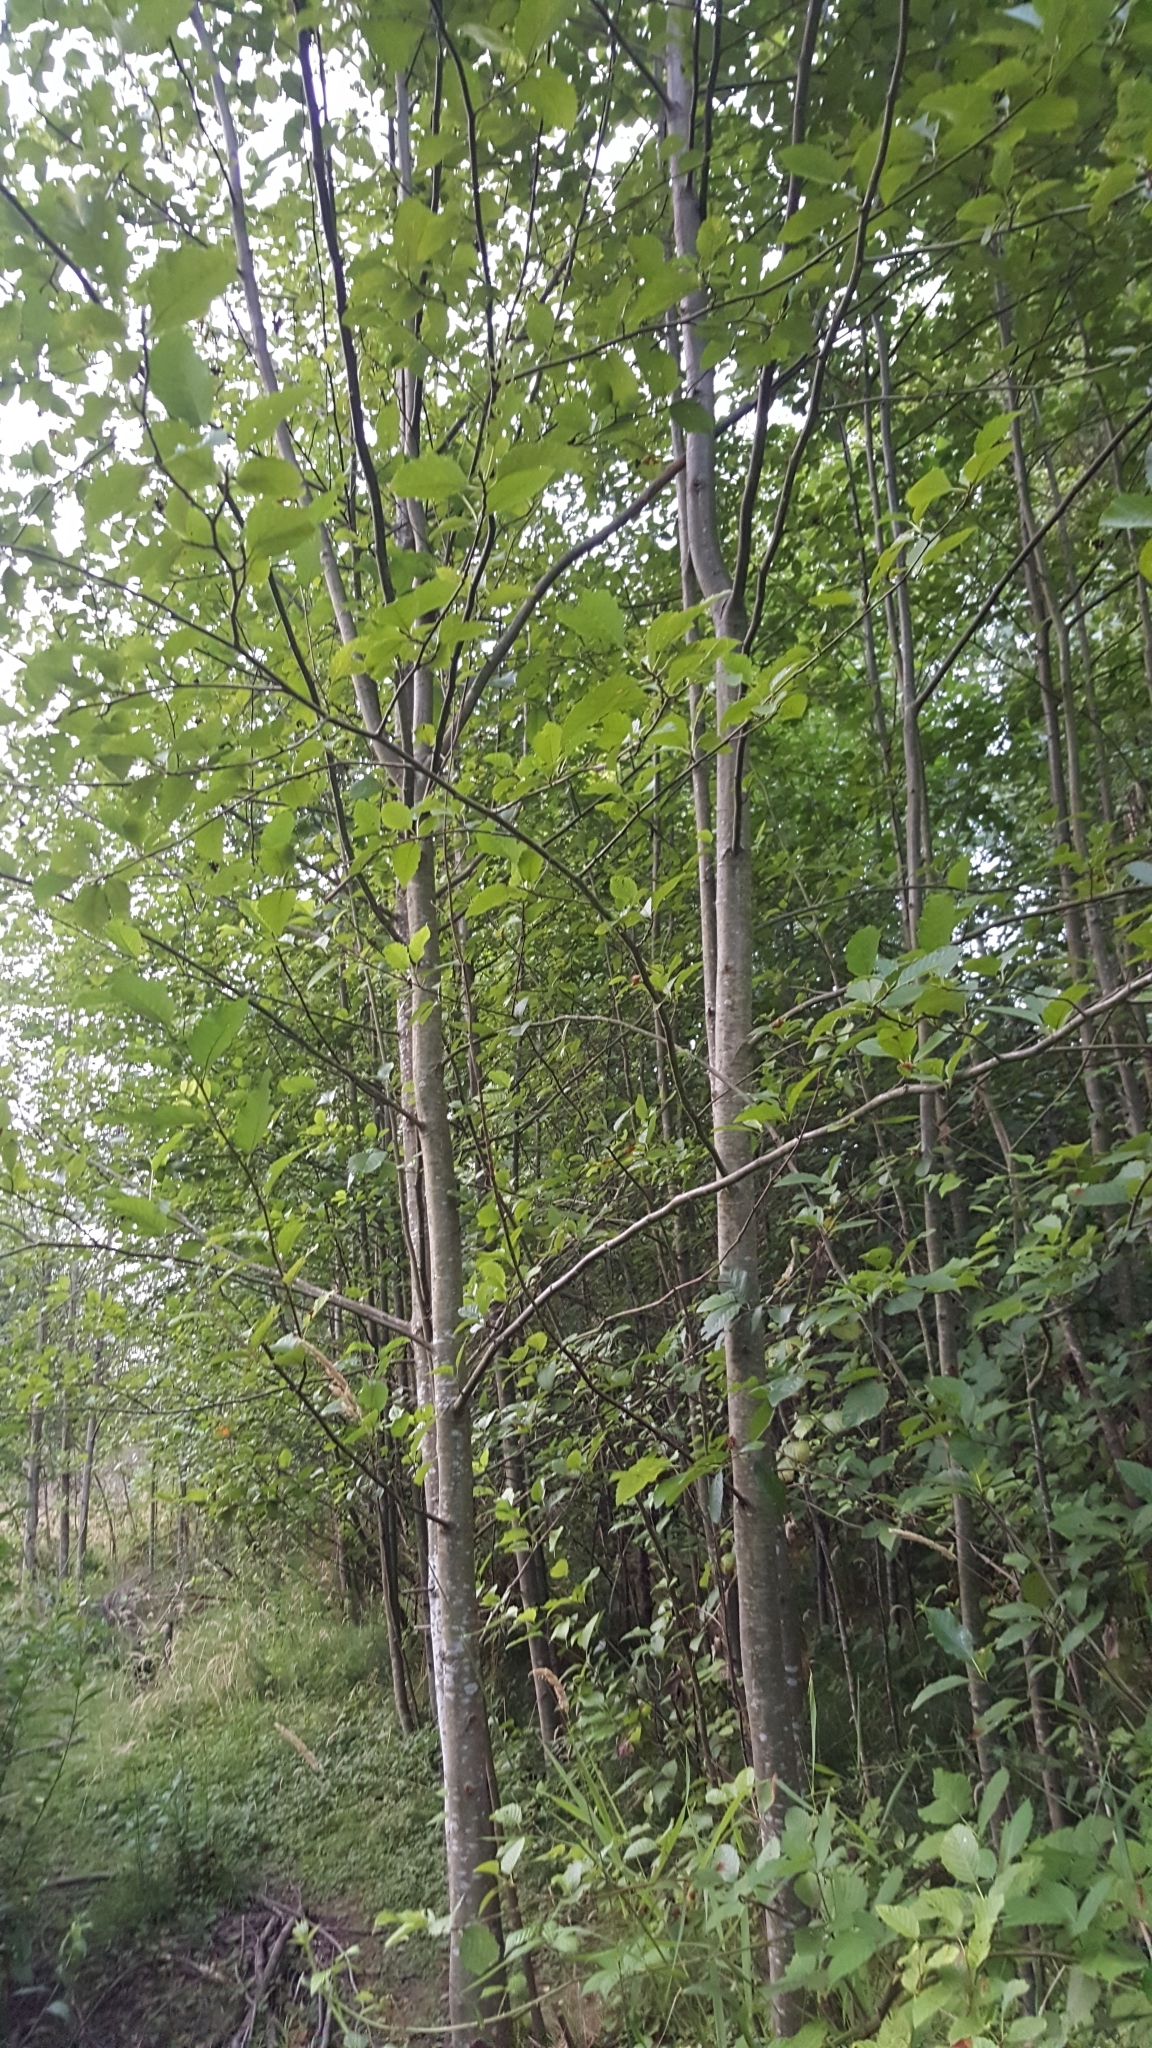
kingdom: Plantae
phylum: Tracheophyta
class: Magnoliopsida
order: Fagales
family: Betulaceae
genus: Alnus
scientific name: Alnus rubra
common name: Red alder
